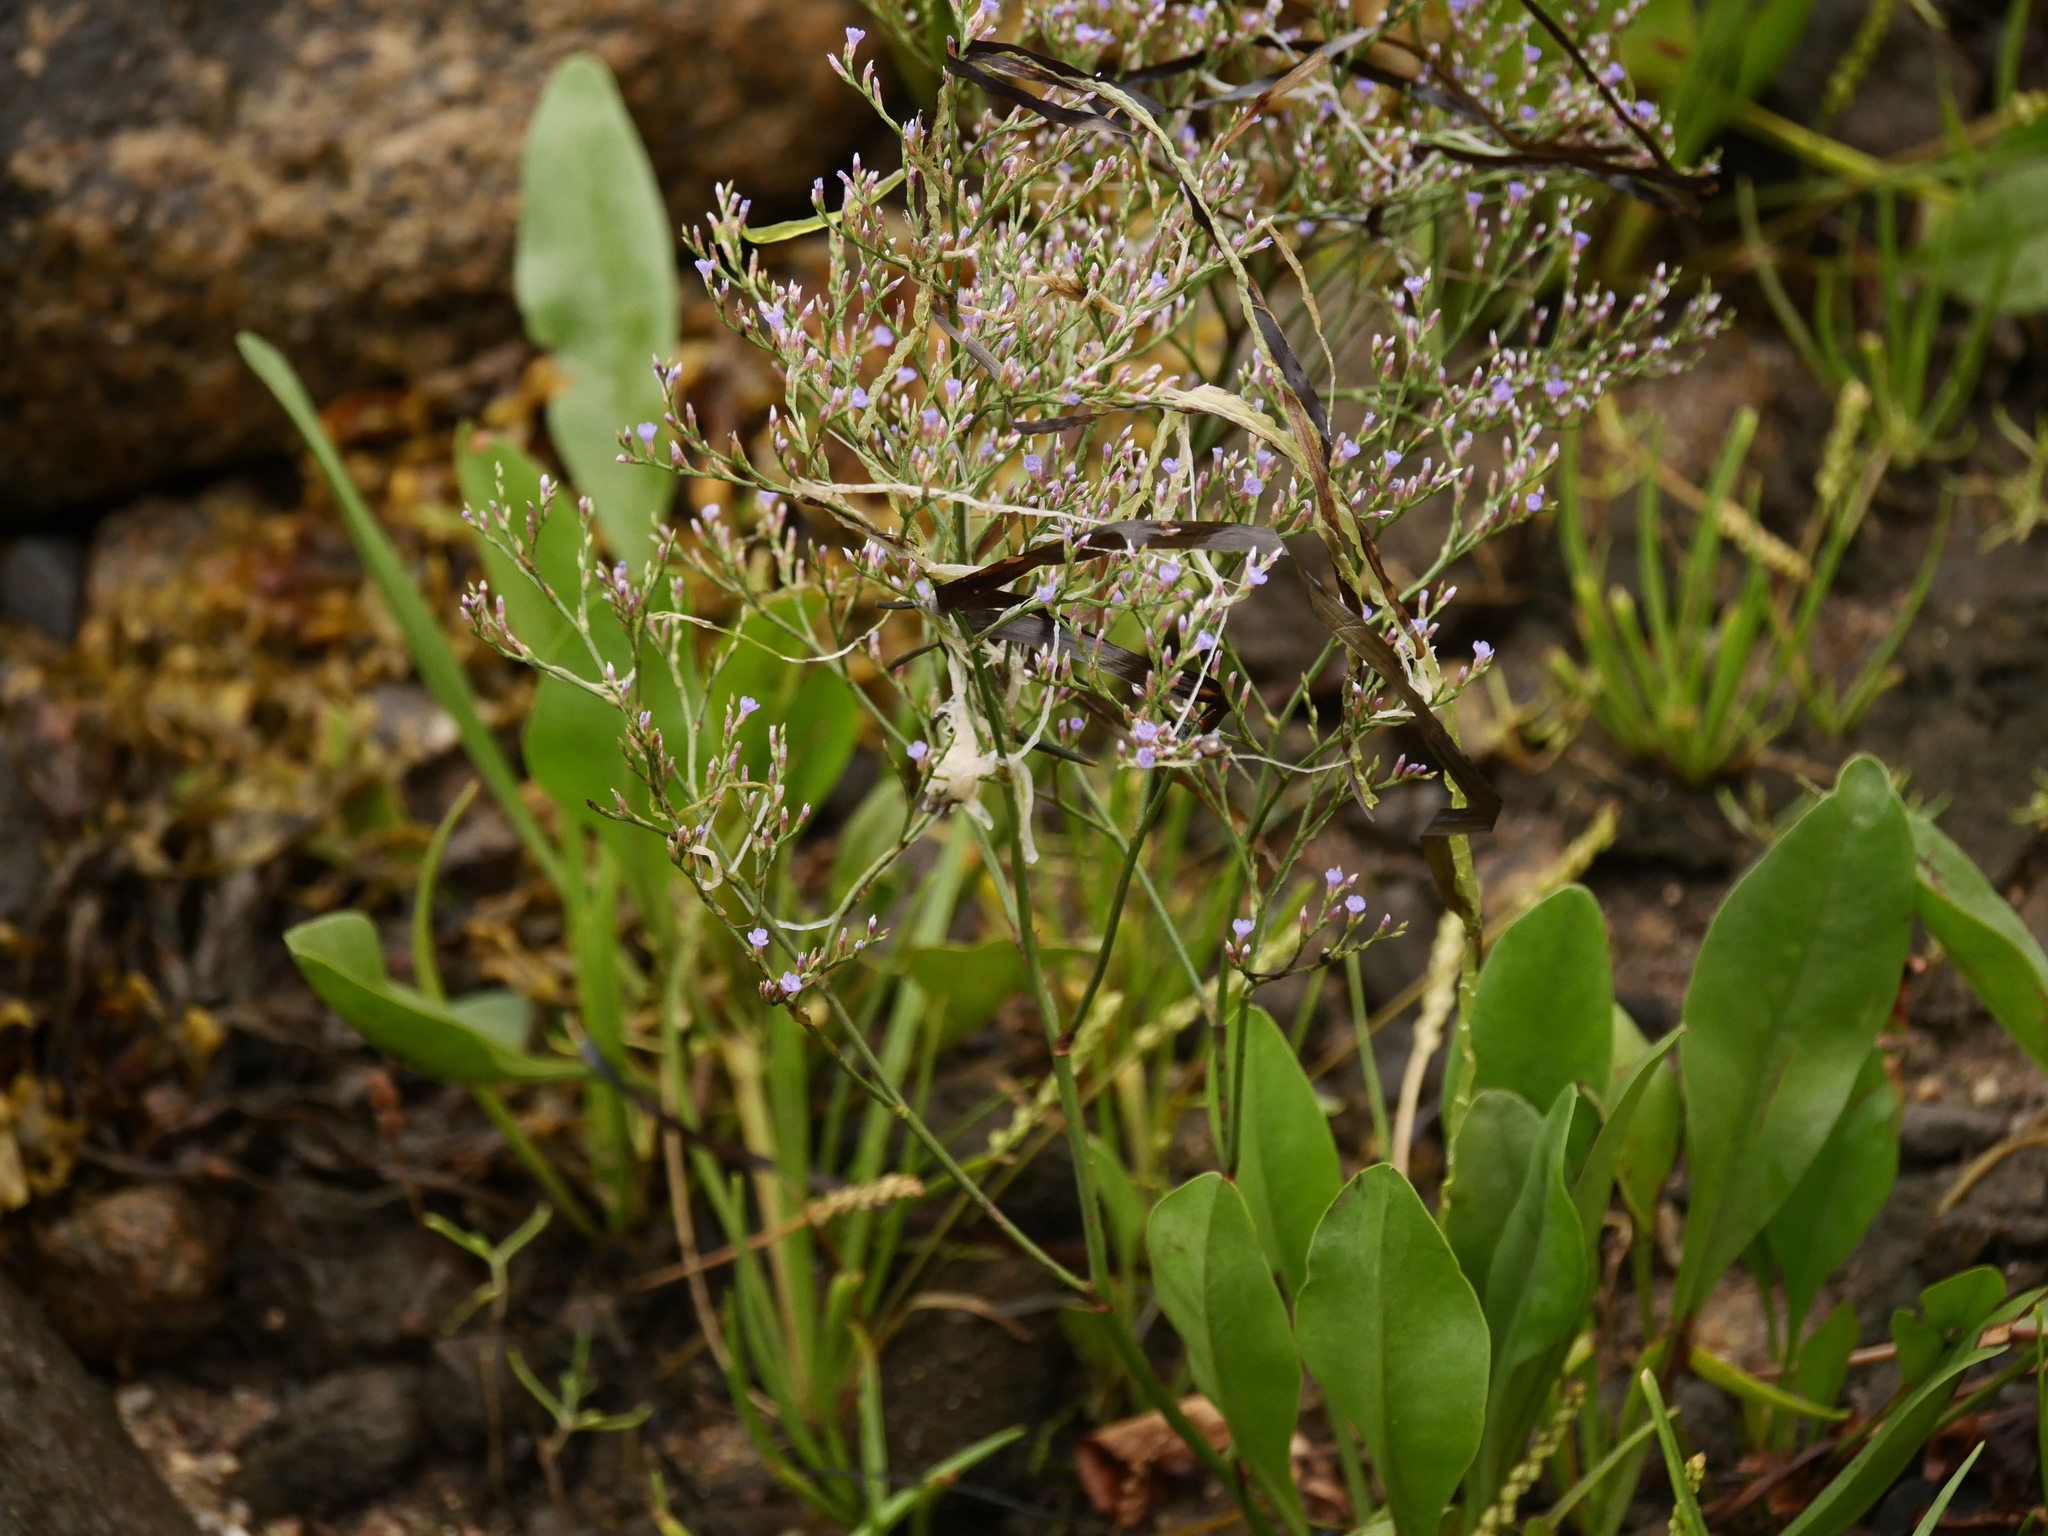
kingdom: Plantae
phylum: Tracheophyta
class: Magnoliopsida
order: Caryophyllales
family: Plumbaginaceae
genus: Limonium
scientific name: Limonium carolinianum
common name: Carolina sea lavender
